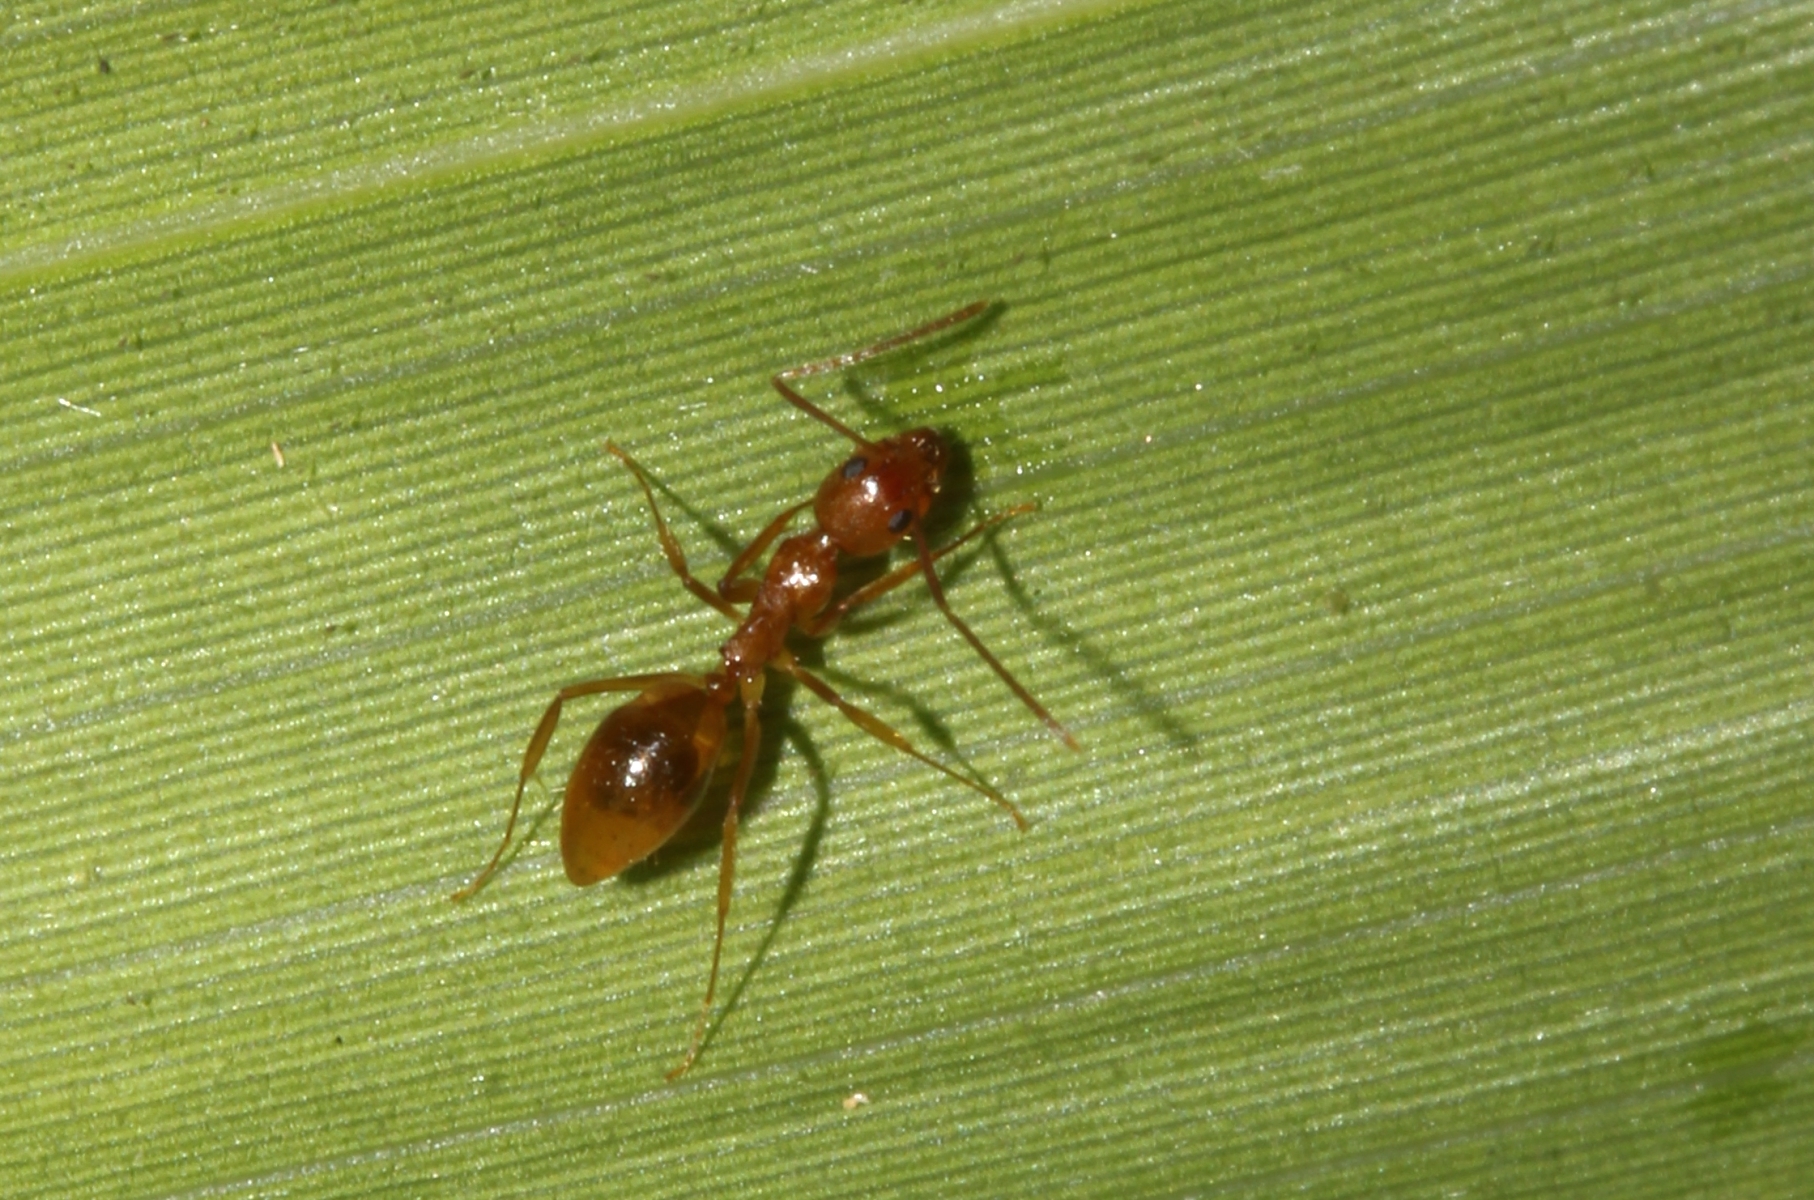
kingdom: Animalia
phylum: Arthropoda
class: Insecta
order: Hymenoptera
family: Formicidae
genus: Dolichoderus
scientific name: Dolichoderus
